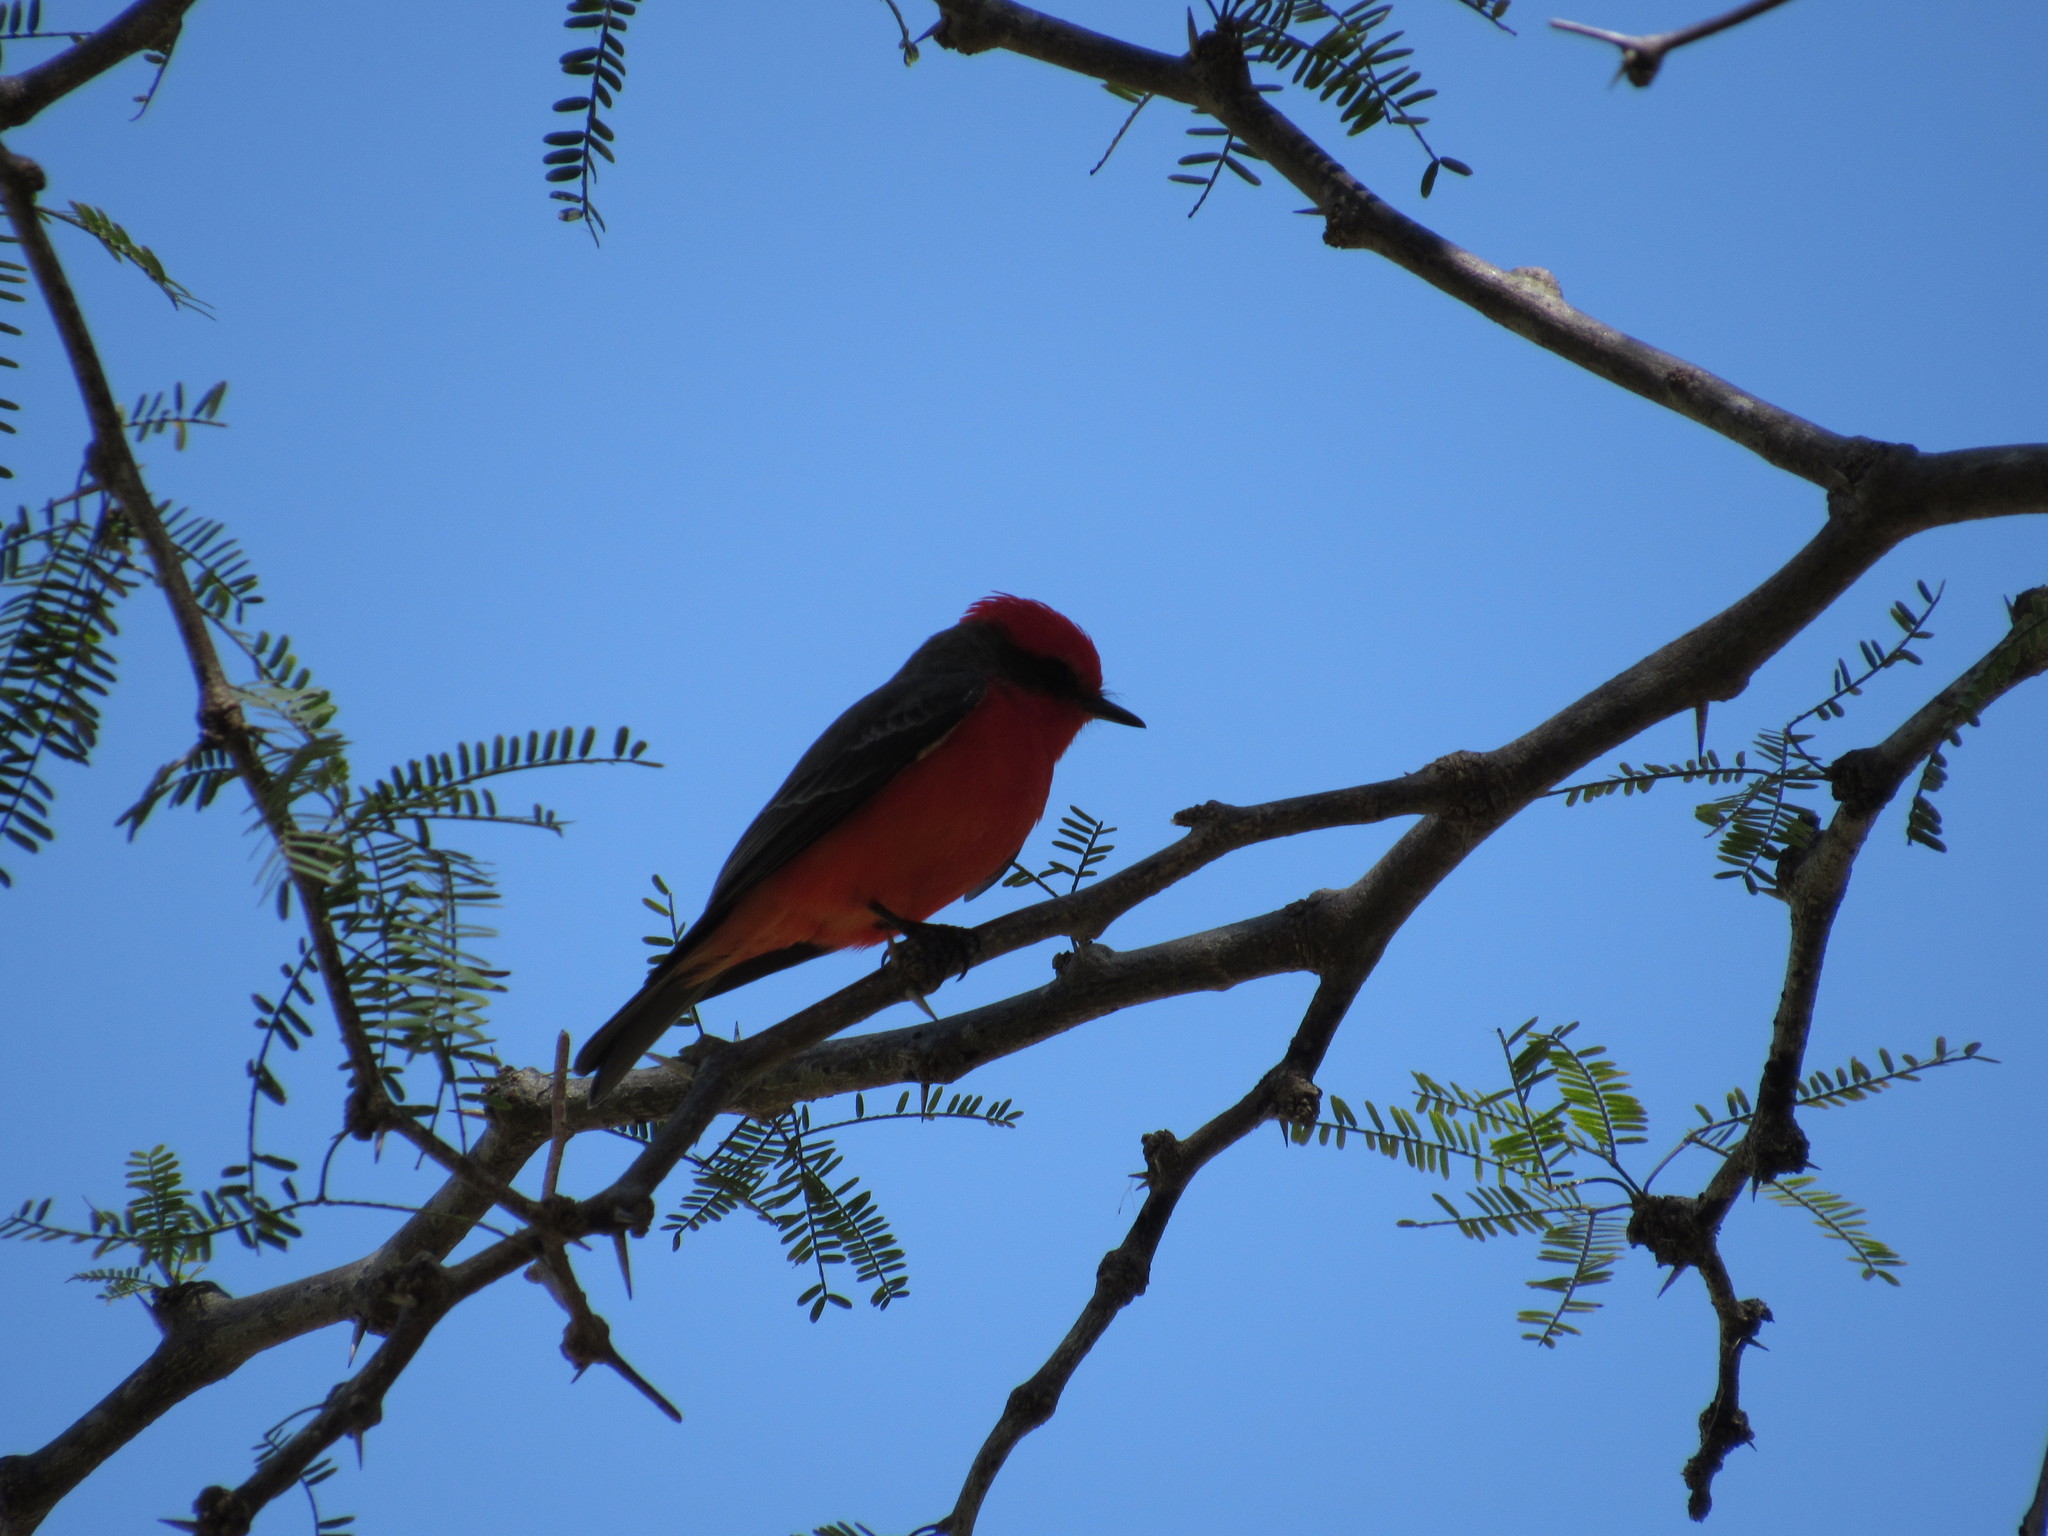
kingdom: Animalia
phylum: Chordata
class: Aves
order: Passeriformes
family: Tyrannidae
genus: Pyrocephalus
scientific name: Pyrocephalus rubinus
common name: Vermilion flycatcher
